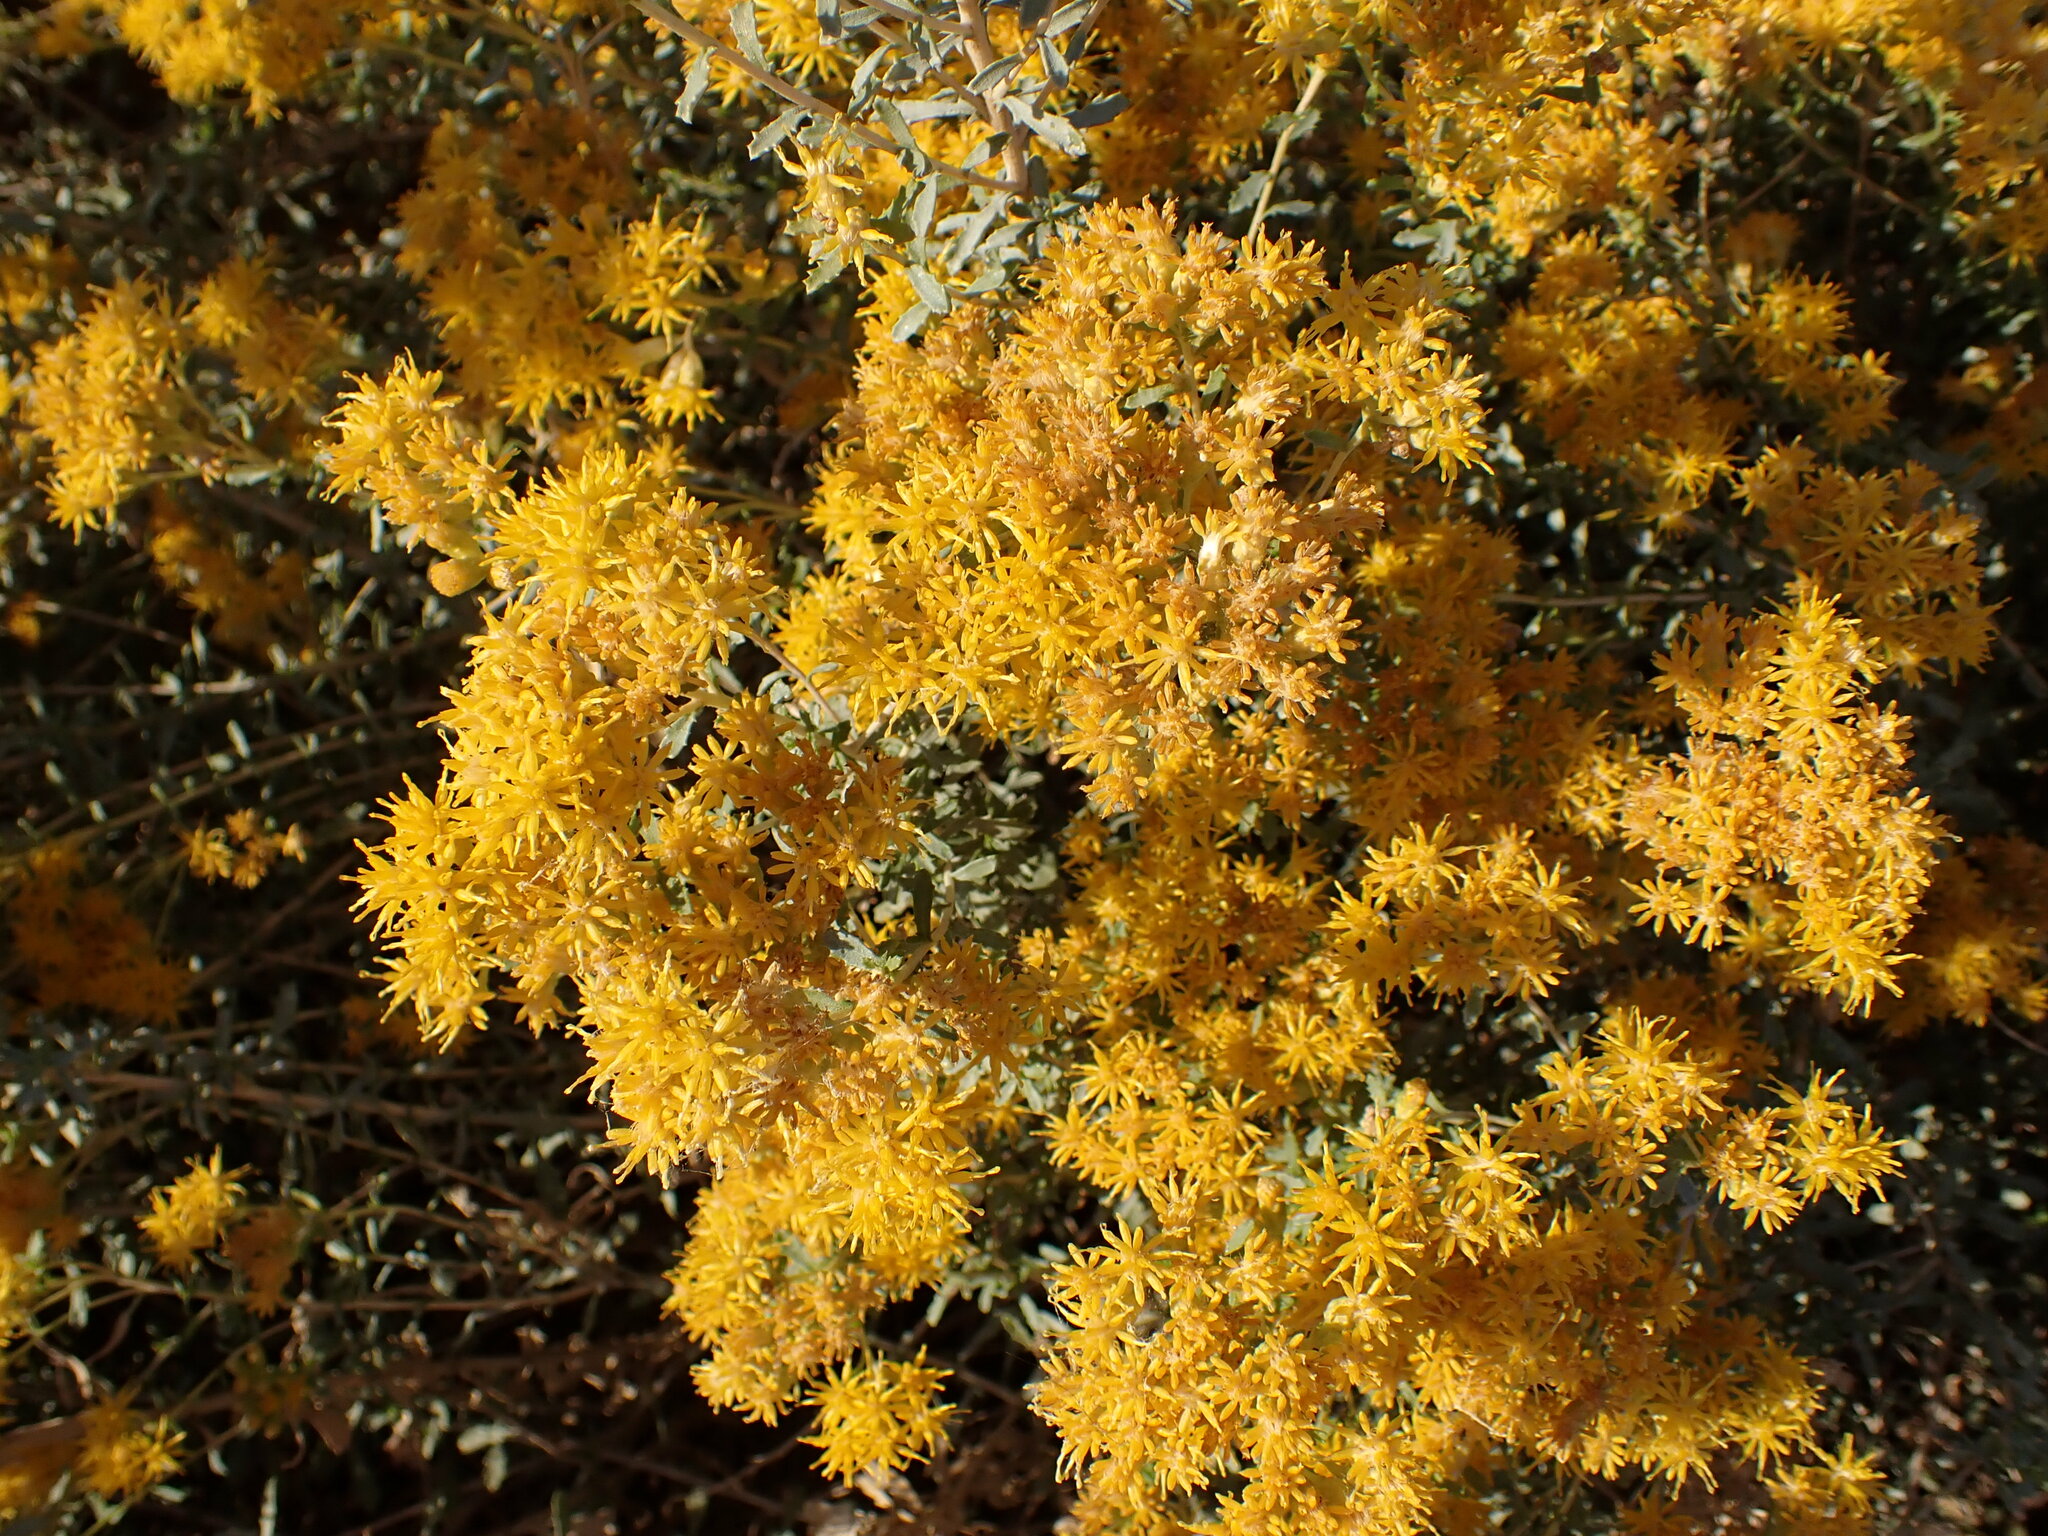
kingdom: Plantae
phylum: Tracheophyta
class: Magnoliopsida
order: Asterales
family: Asteraceae
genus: Isocoma
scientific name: Isocoma acradenia
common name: Alkali jimmyweed
